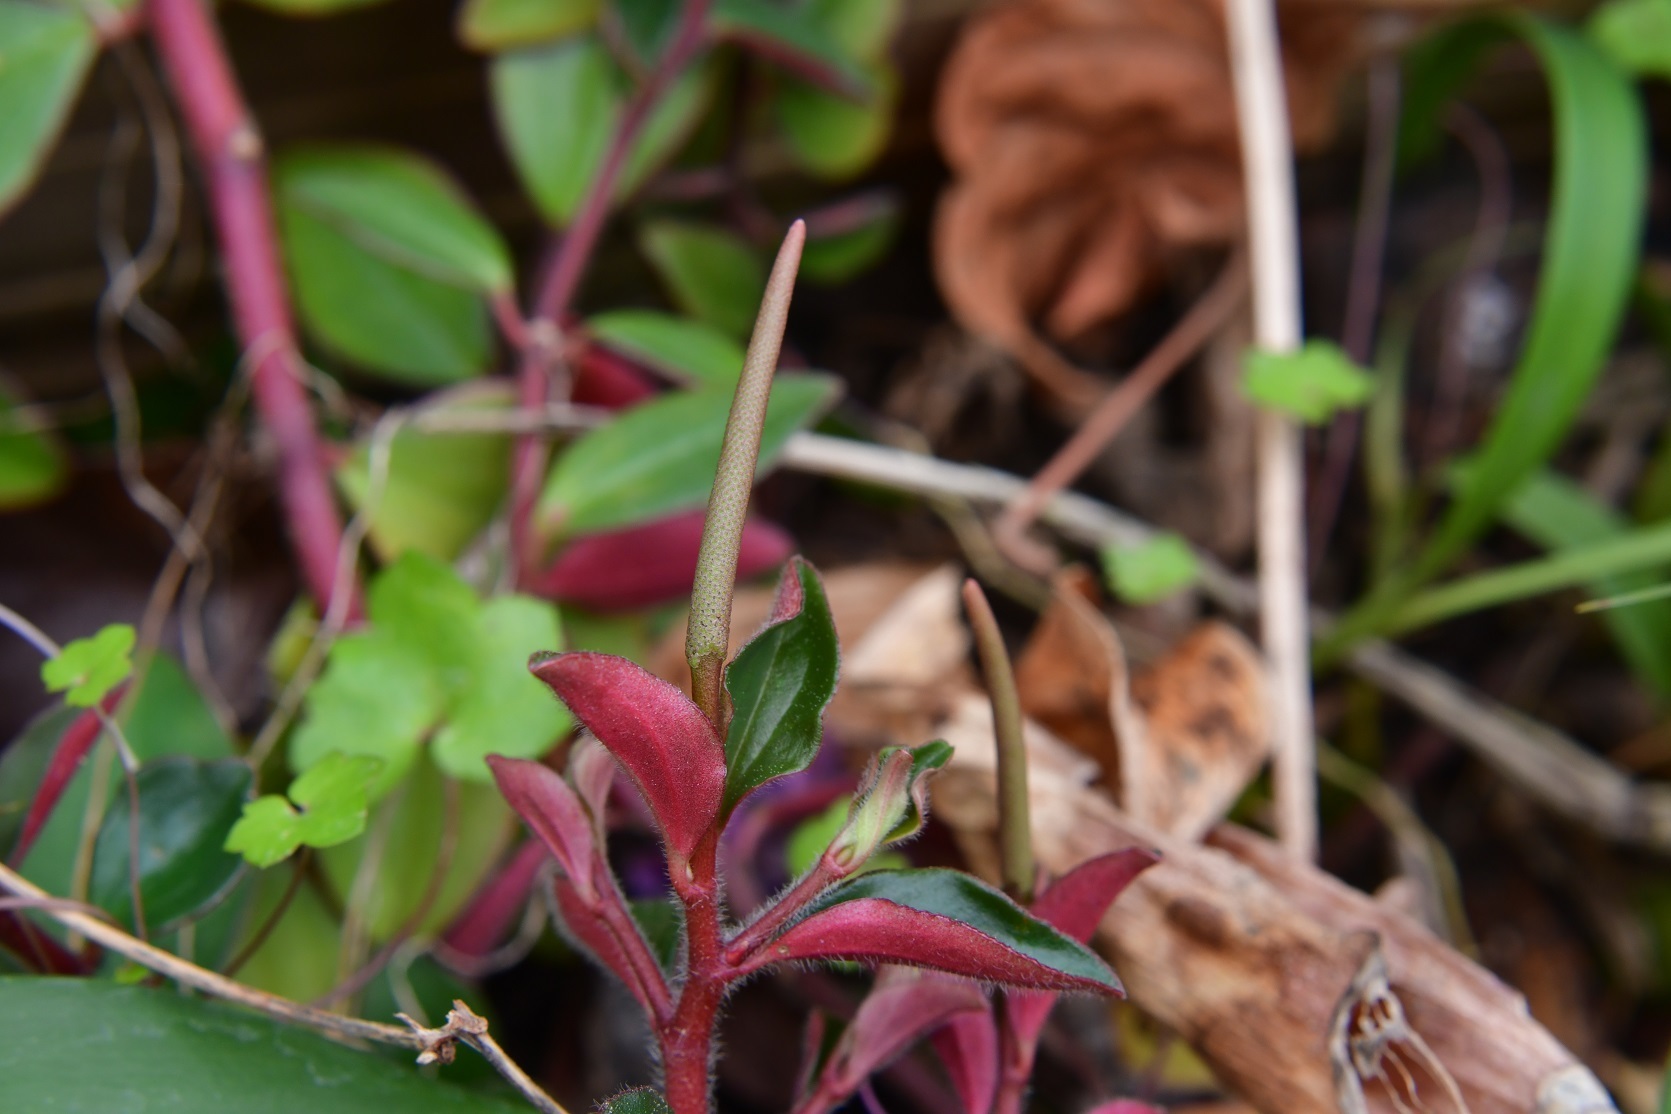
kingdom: Plantae
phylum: Tracheophyta
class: Magnoliopsida
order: Piperales
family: Piperaceae
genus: Peperomia
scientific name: Peperomia consoquitlana
